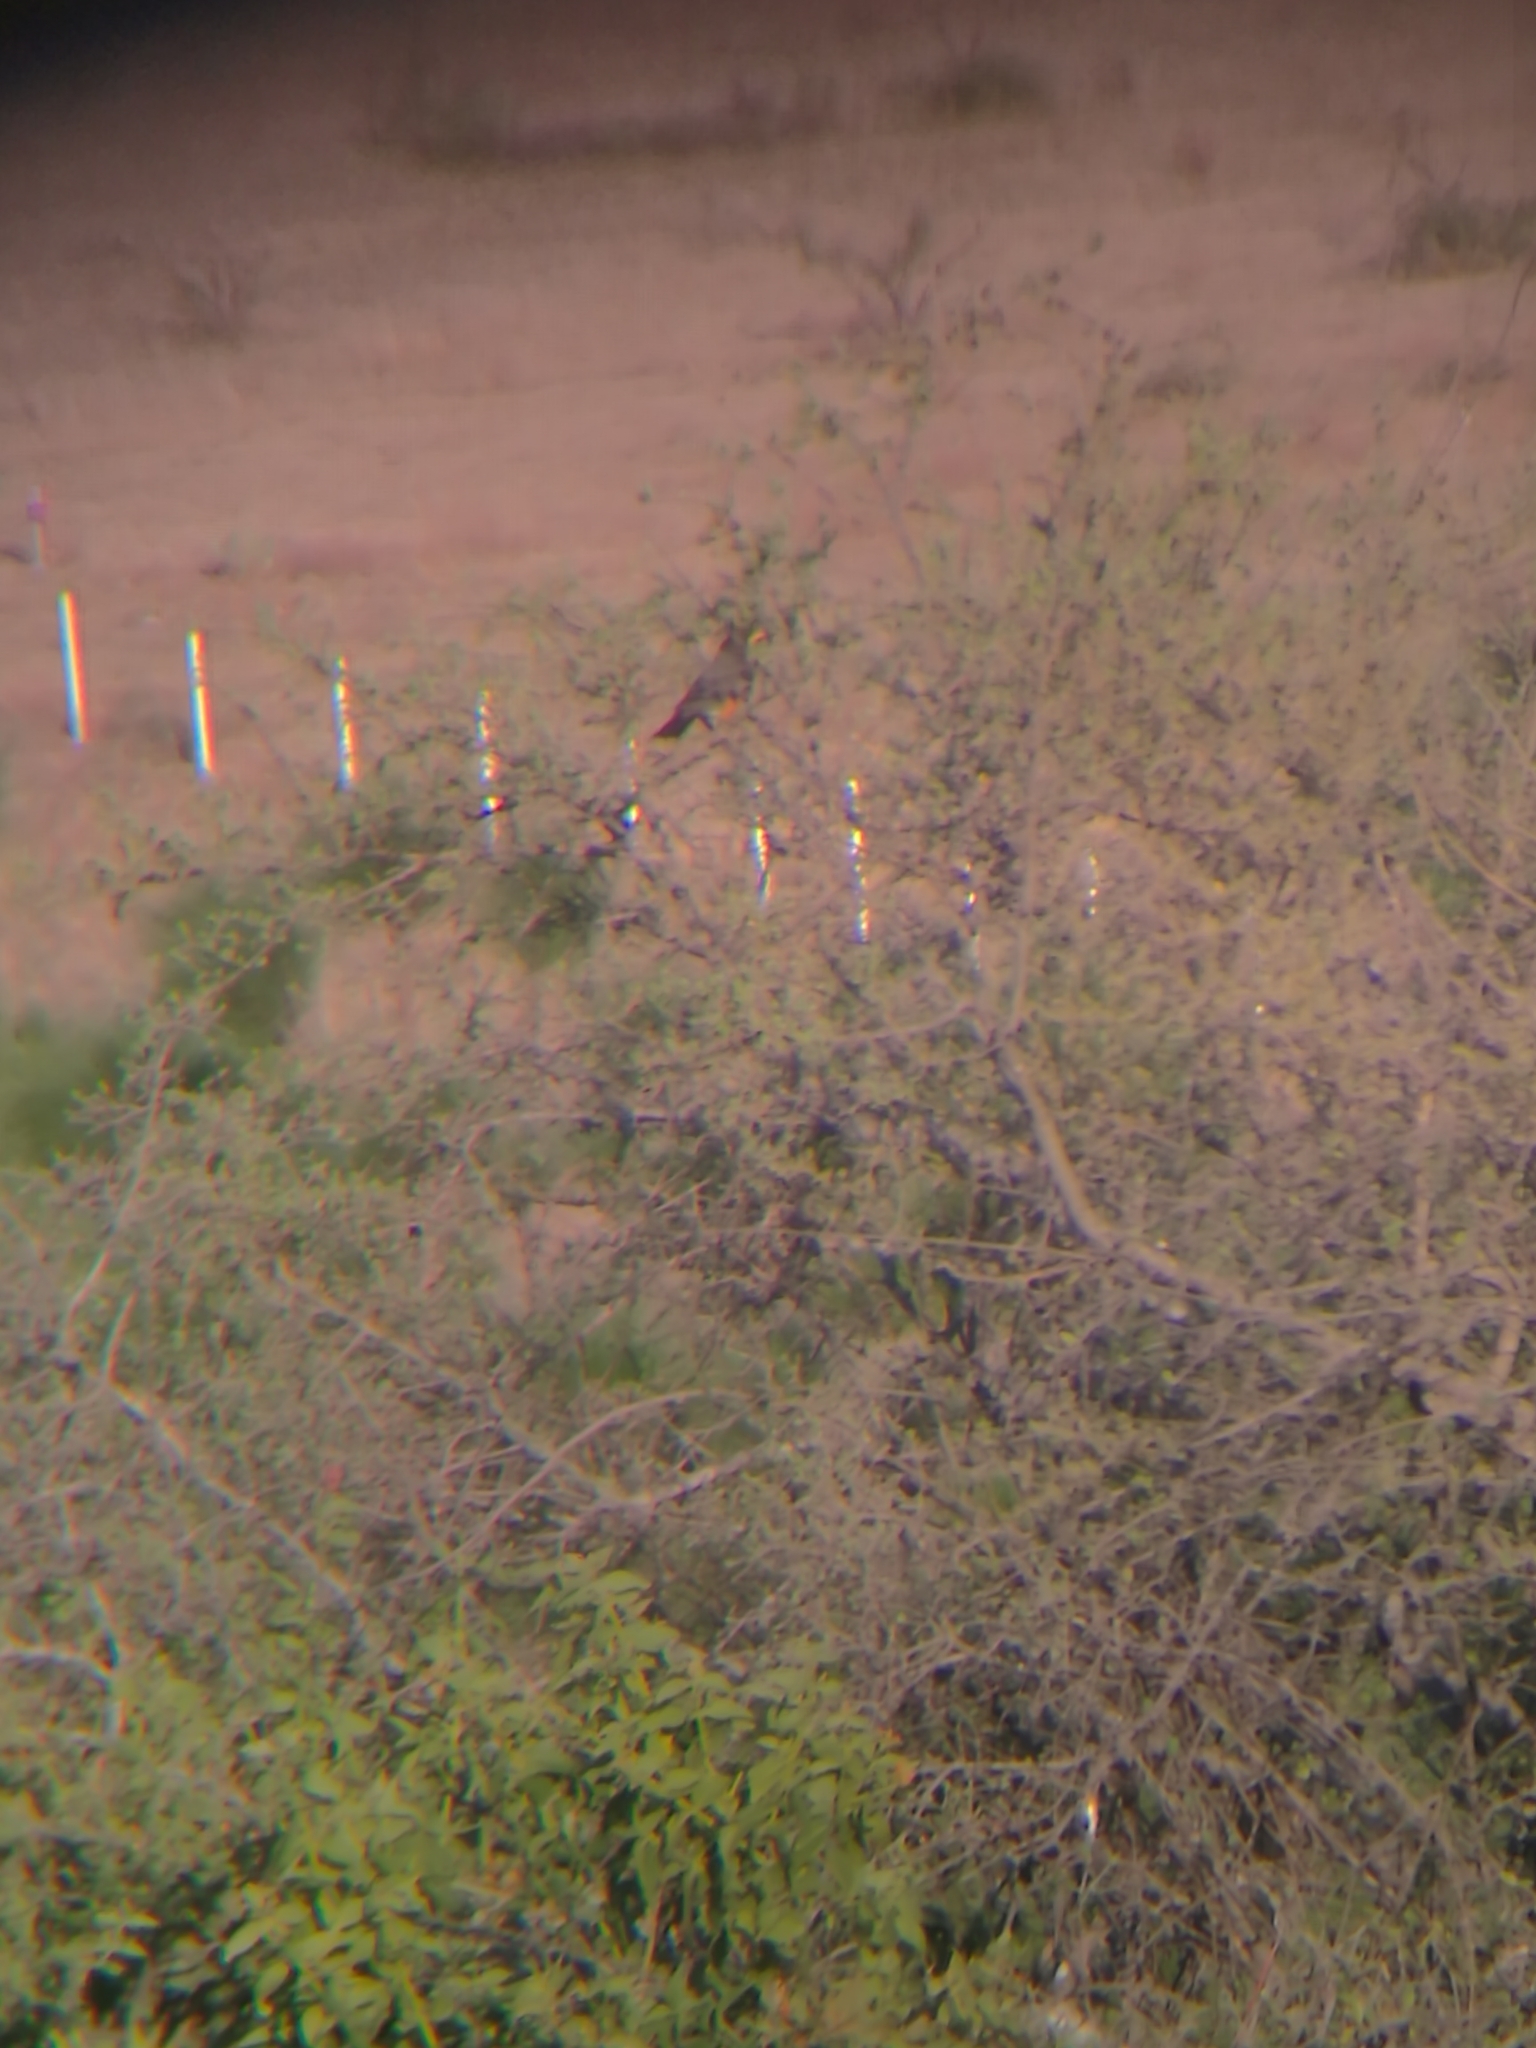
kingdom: Animalia
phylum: Chordata
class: Aves
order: Passeriformes
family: Turdidae
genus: Turdus
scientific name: Turdus migratorius
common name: American robin
